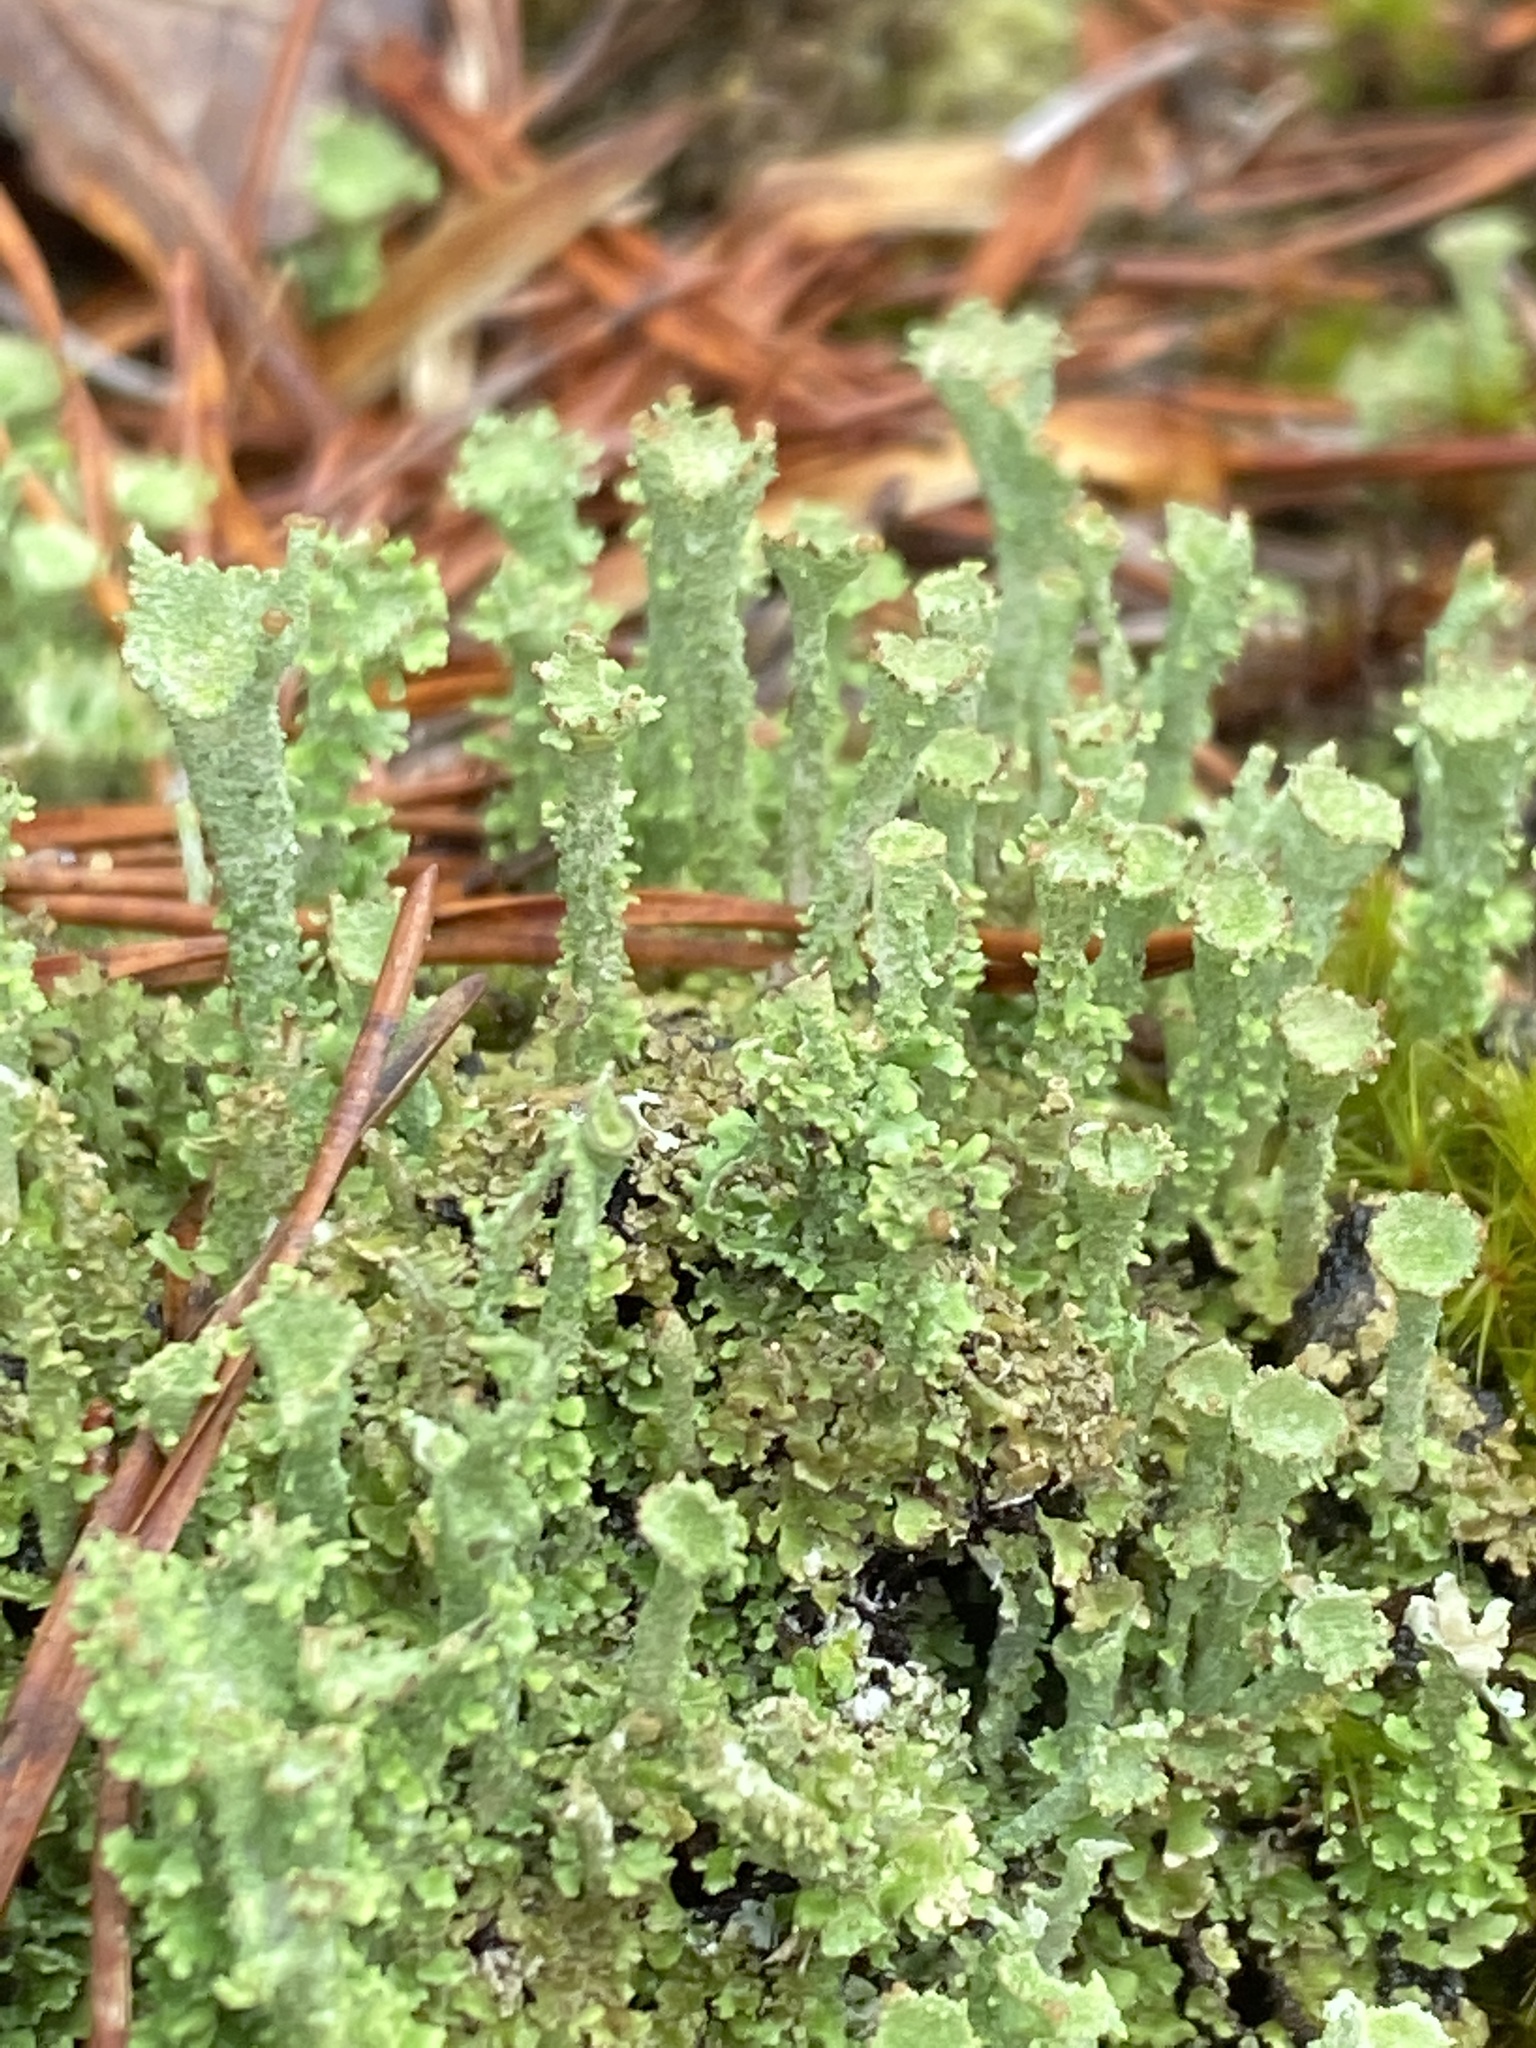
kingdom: Fungi
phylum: Ascomycota
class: Lecanoromycetes
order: Lecanorales
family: Cladoniaceae
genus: Cladonia
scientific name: Cladonia chlorophaea
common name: Mealy pixie cup
